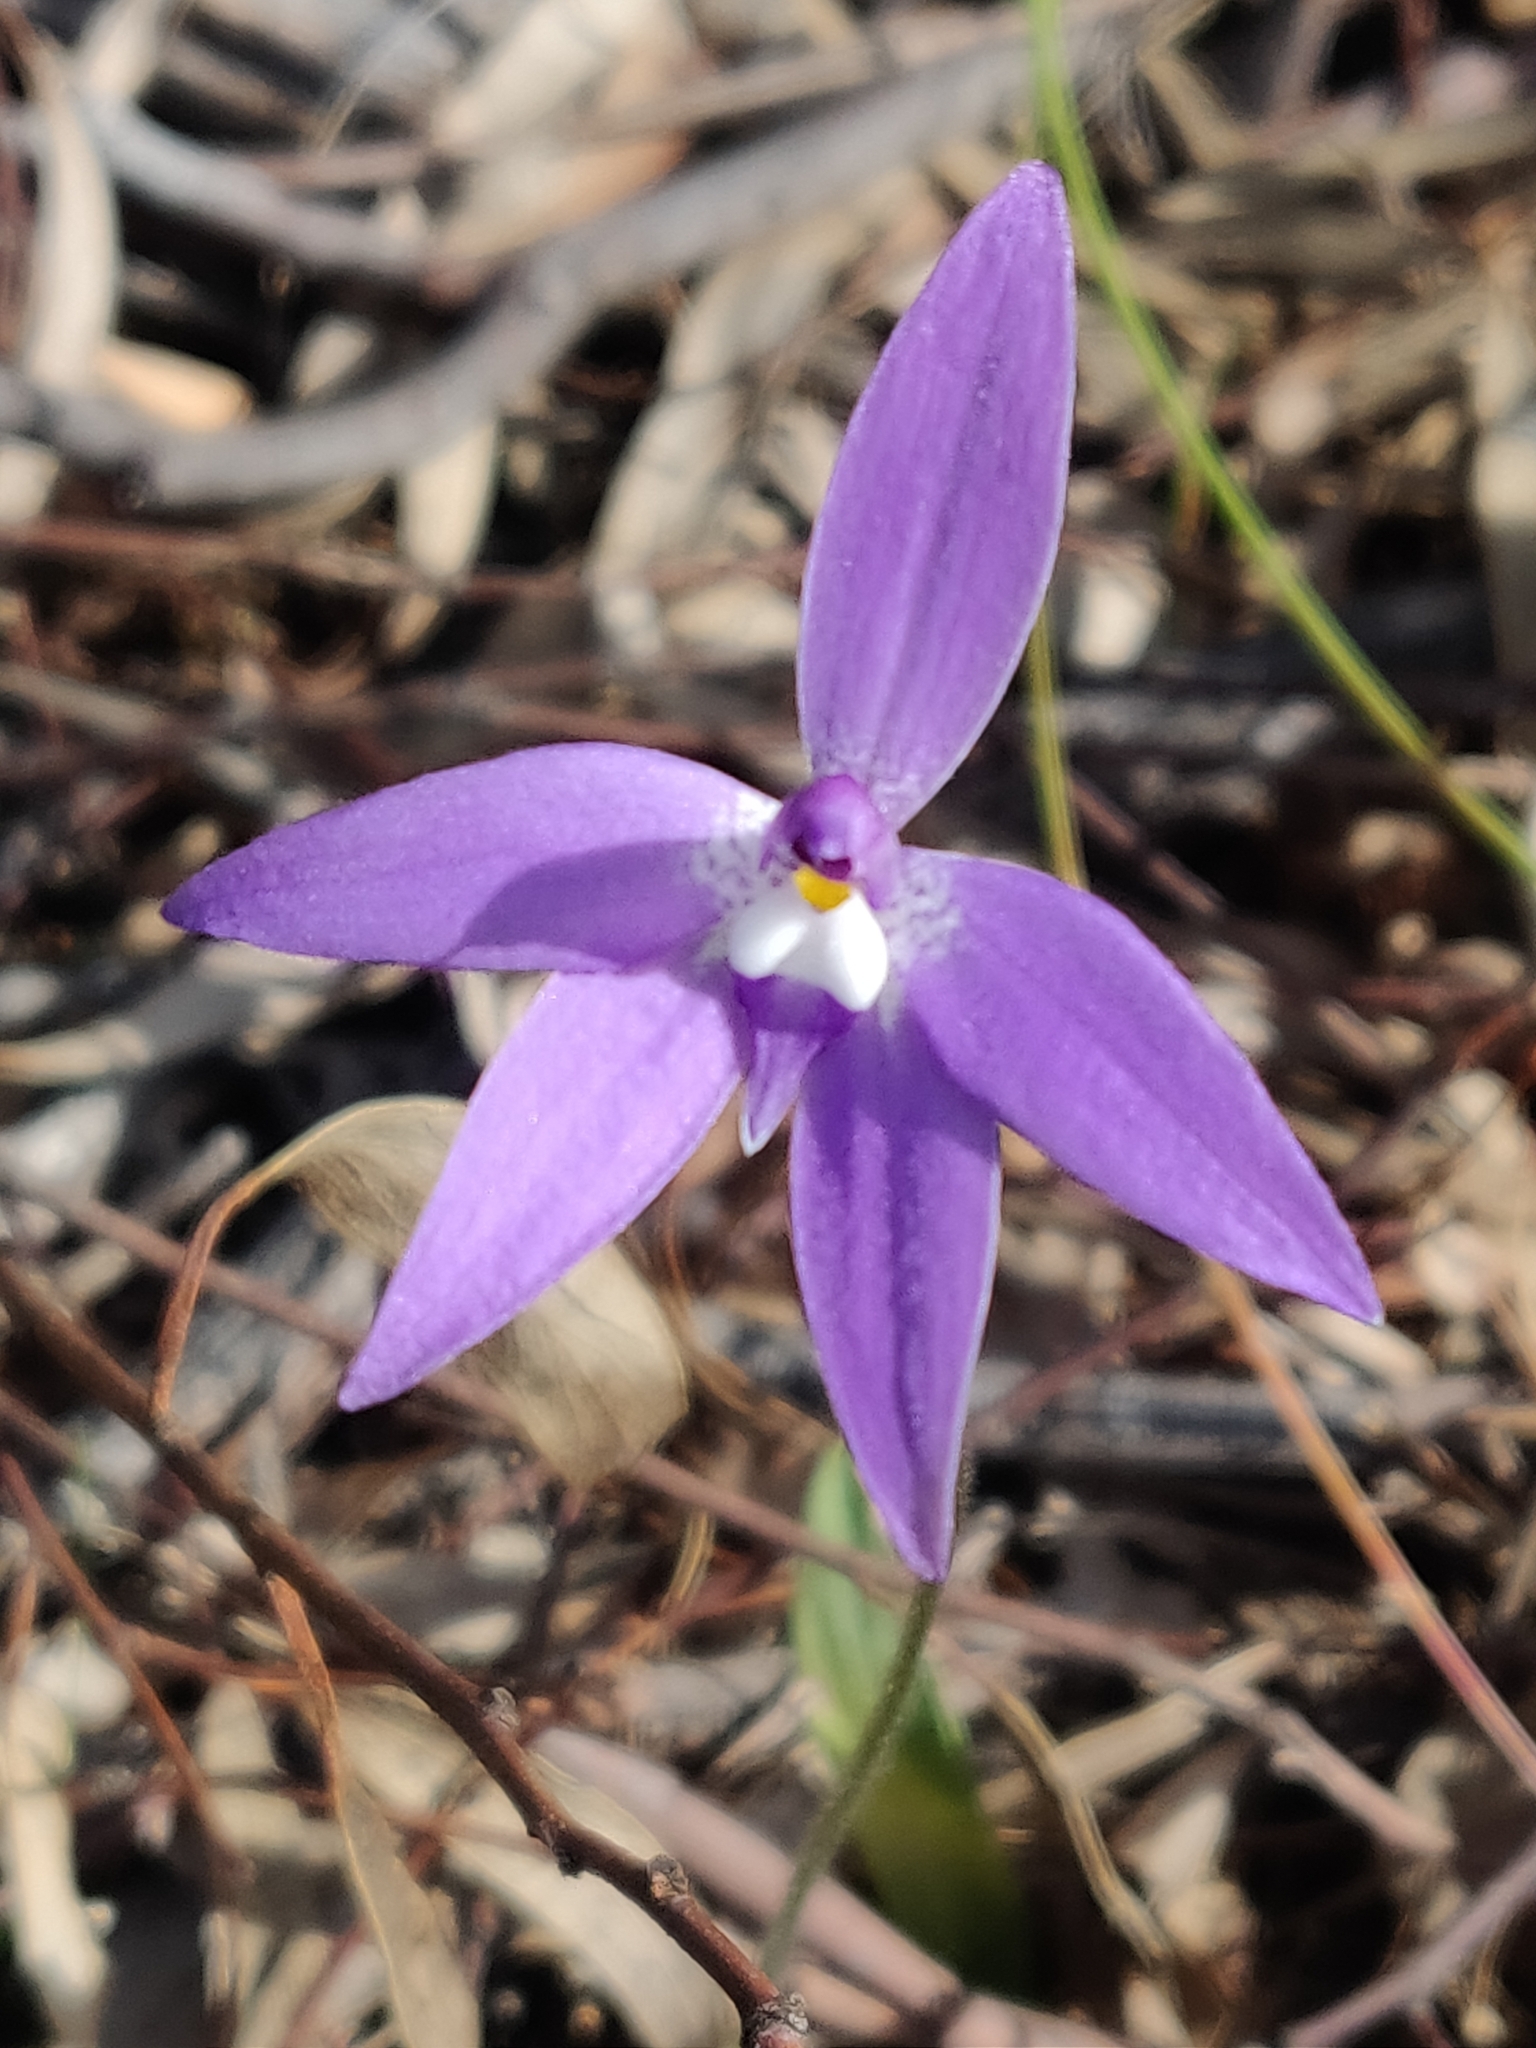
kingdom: Plantae
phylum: Tracheophyta
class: Liliopsida
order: Asparagales
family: Orchidaceae
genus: Caladenia
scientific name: Caladenia major
